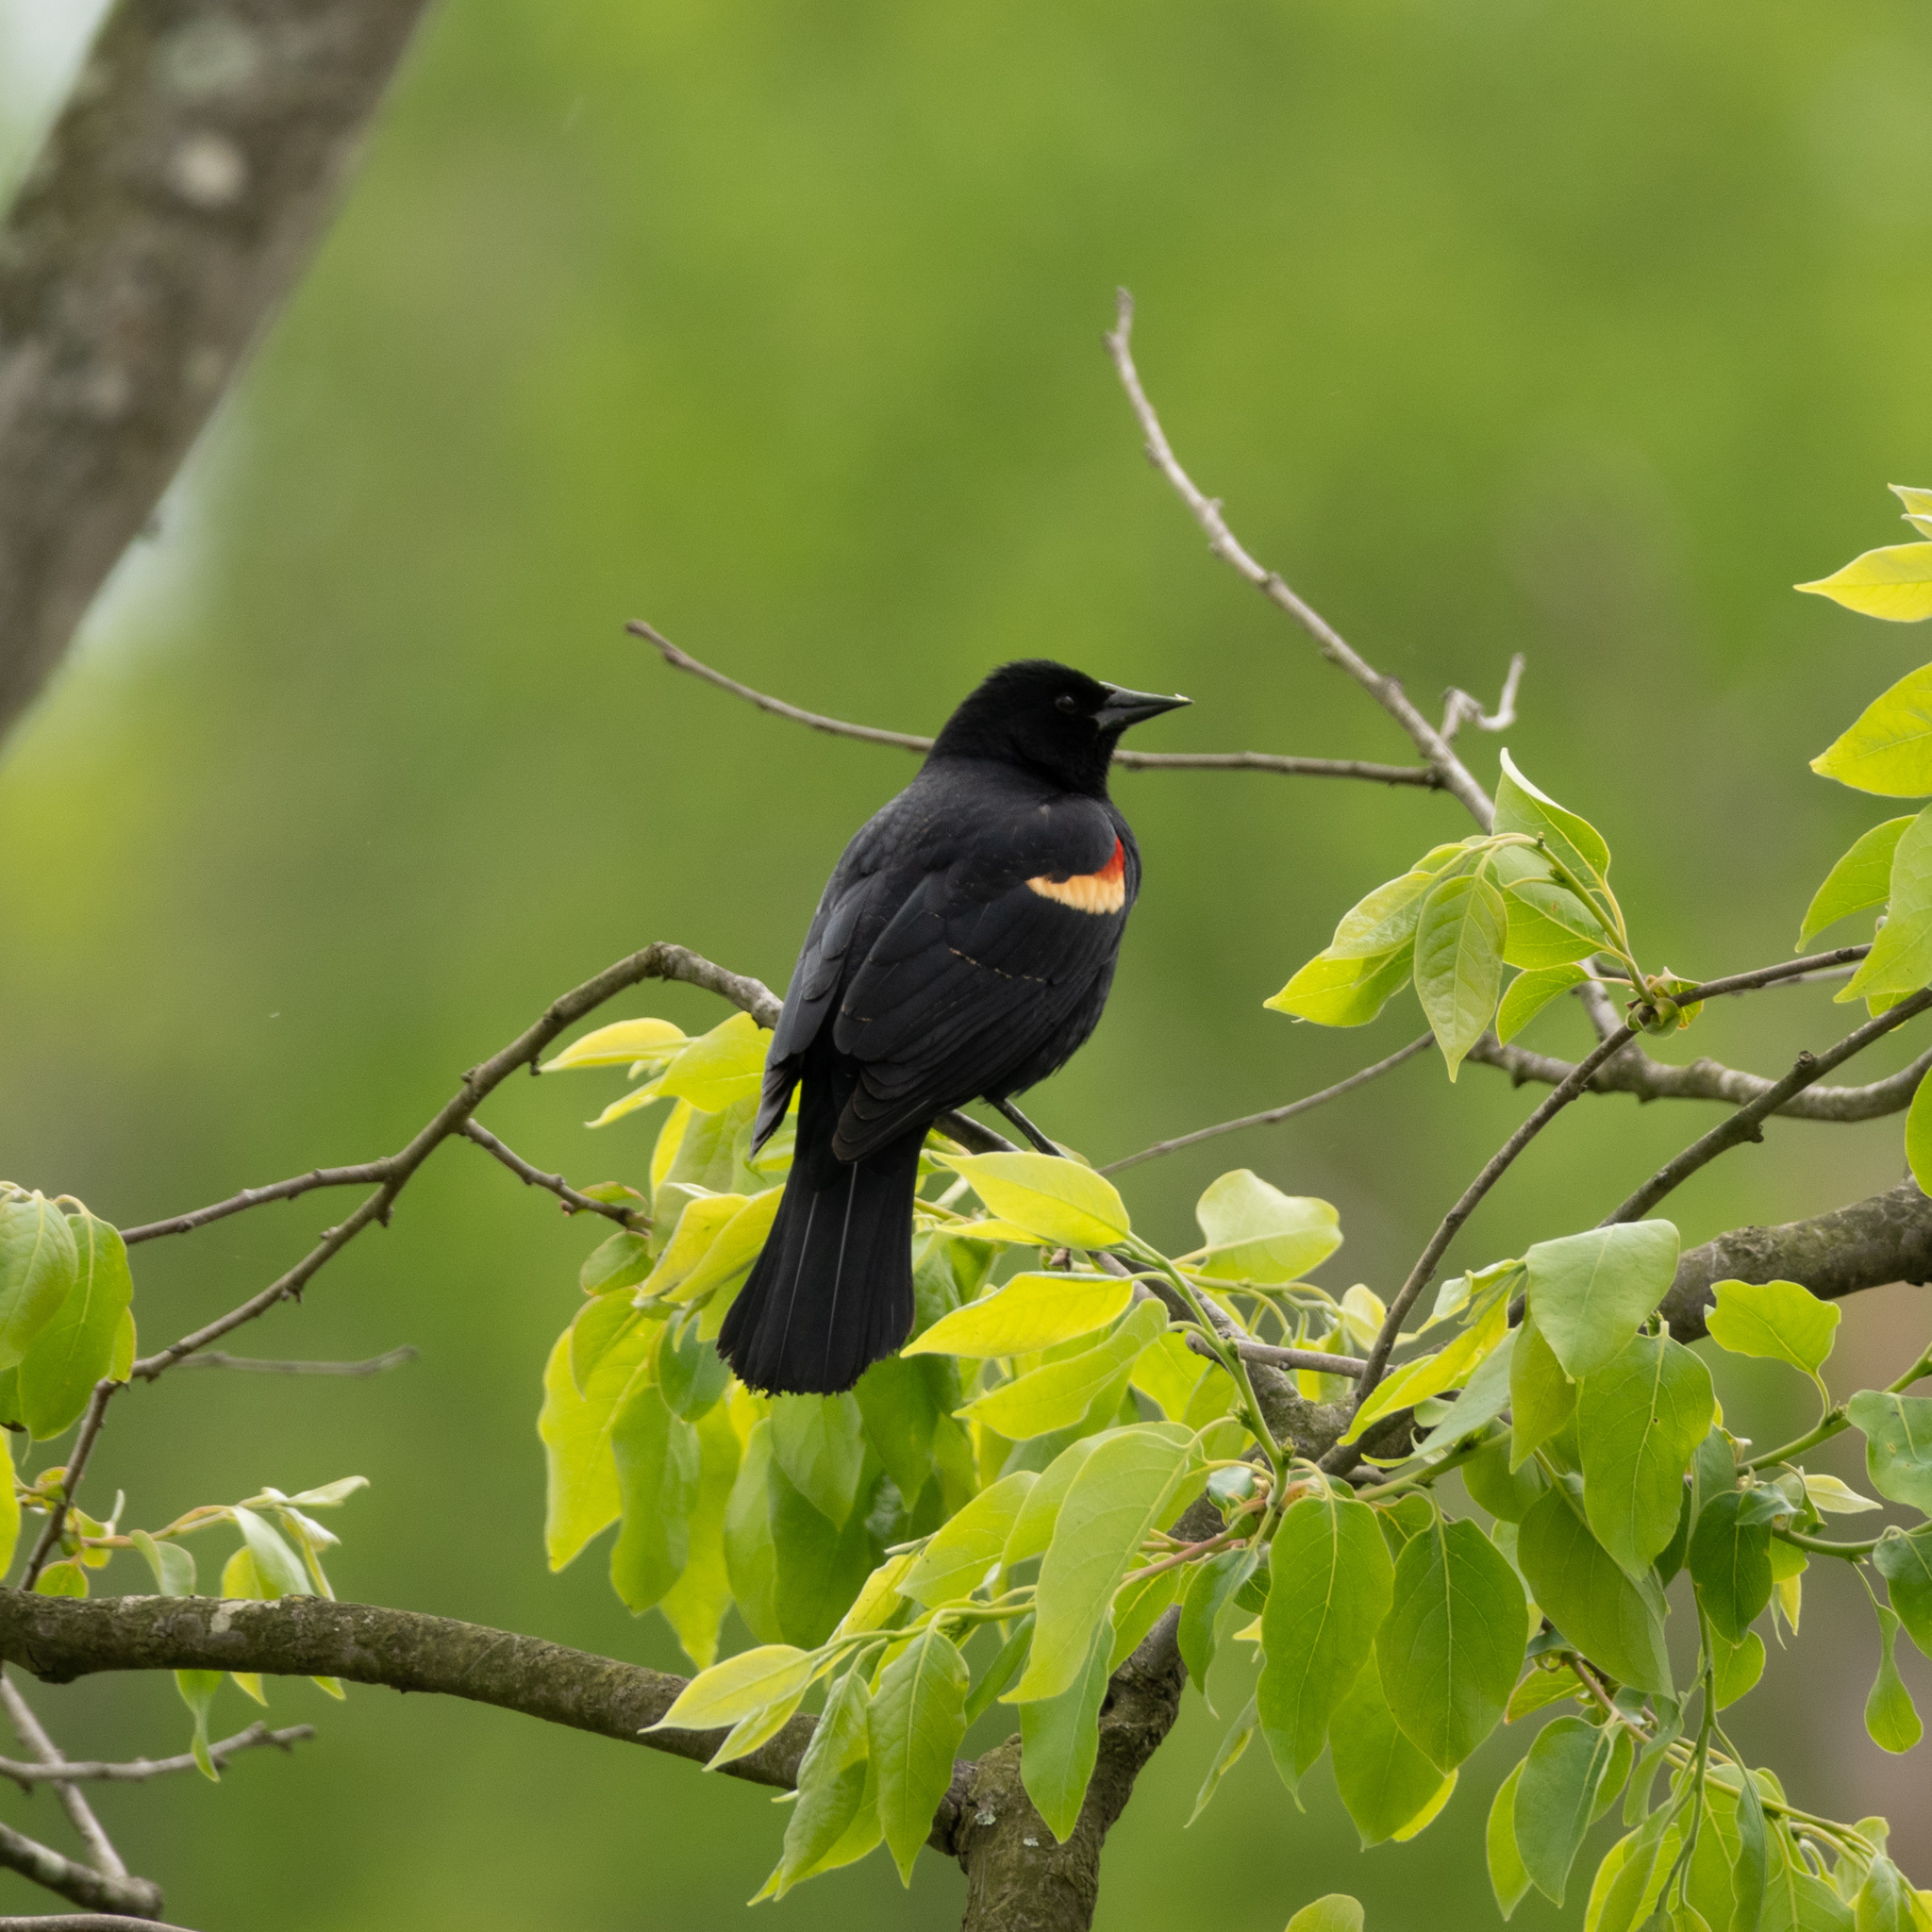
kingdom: Animalia
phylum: Chordata
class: Aves
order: Passeriformes
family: Icteridae
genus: Agelaius
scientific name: Agelaius phoeniceus
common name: Red-winged blackbird
